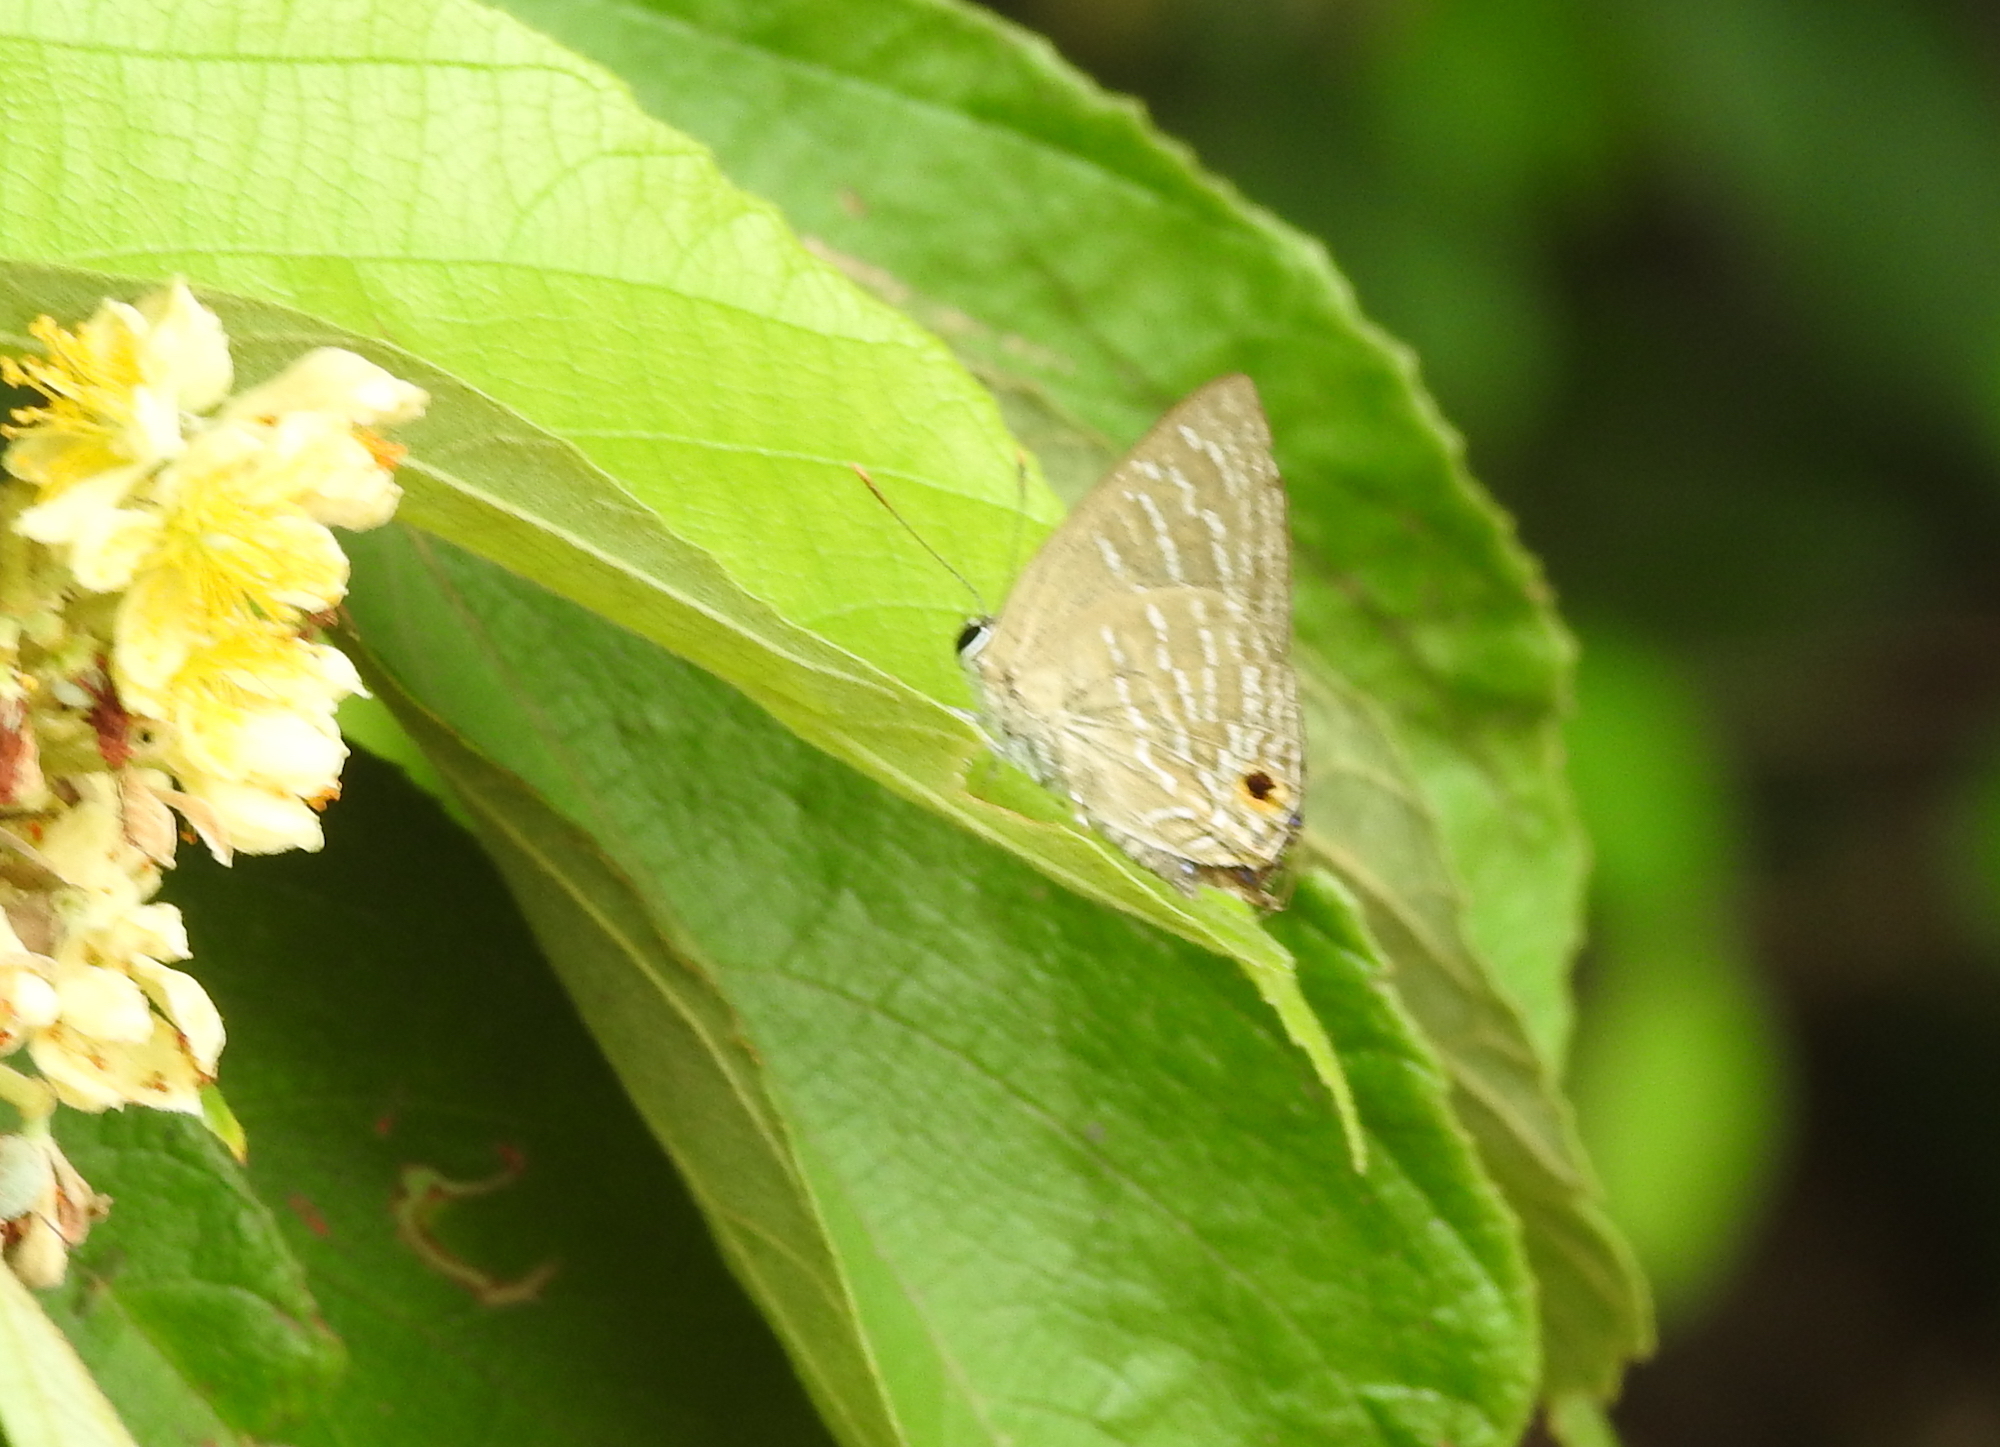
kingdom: Animalia
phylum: Arthropoda
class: Insecta
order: Lepidoptera
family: Lycaenidae
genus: Deudorix
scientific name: Deudorix
